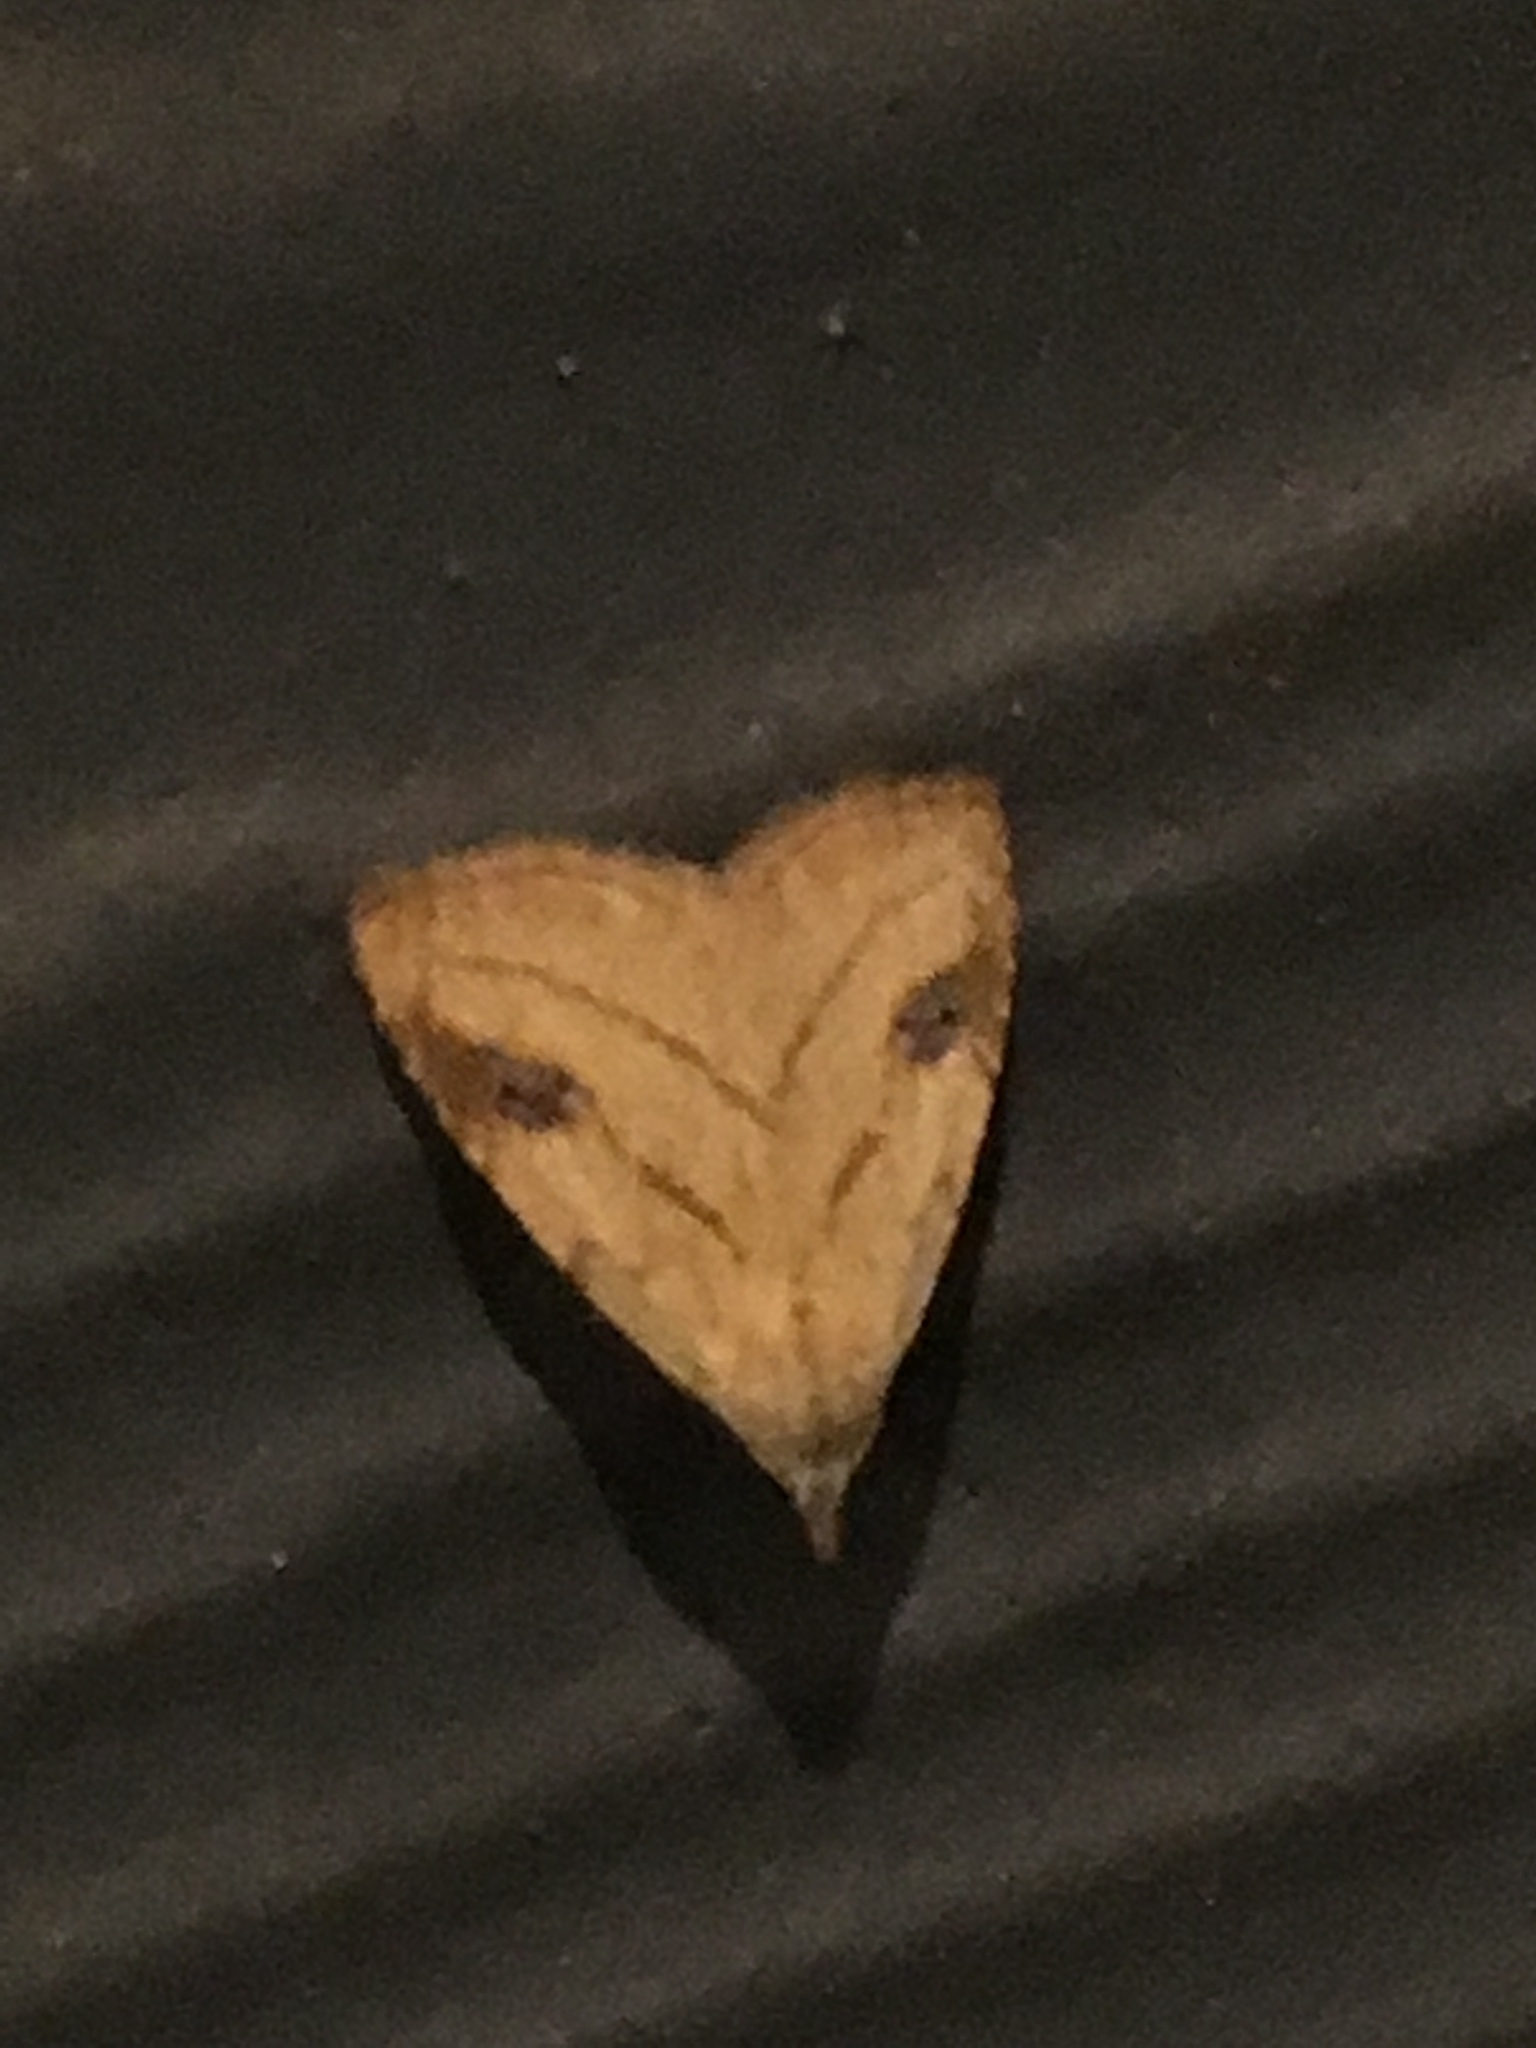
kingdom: Animalia
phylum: Arthropoda
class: Insecta
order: Lepidoptera
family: Erebidae
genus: Rivula
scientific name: Rivula propinqualis
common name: Spotted grass moth
